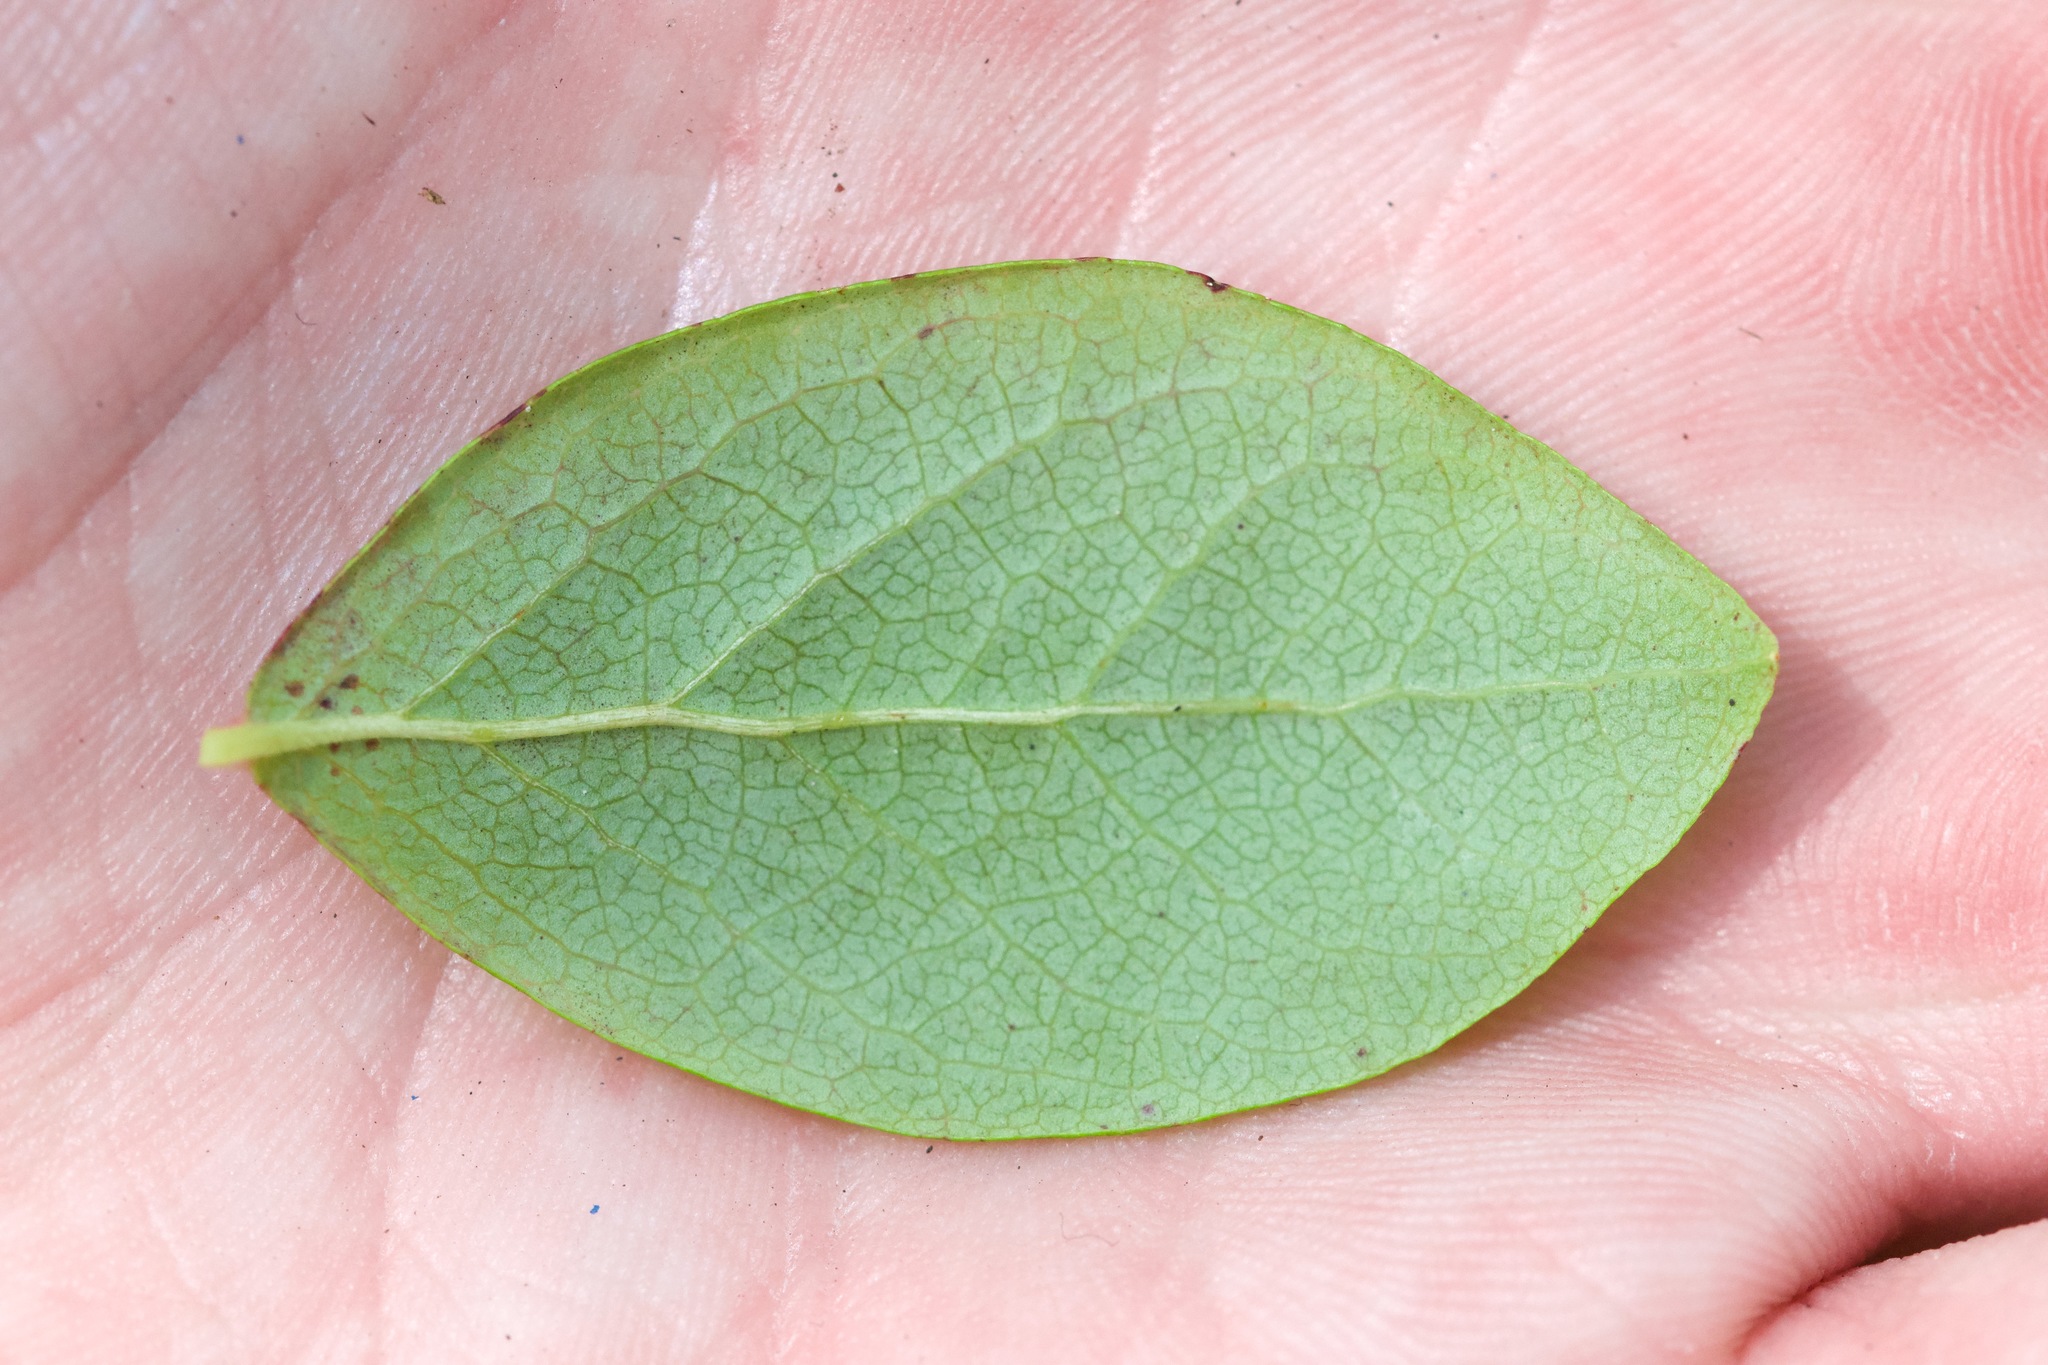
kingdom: Plantae
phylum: Tracheophyta
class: Magnoliopsida
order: Ericales
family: Ericaceae
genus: Vaccinium
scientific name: Vaccinium pallidum
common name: Blue ridge blueberry
